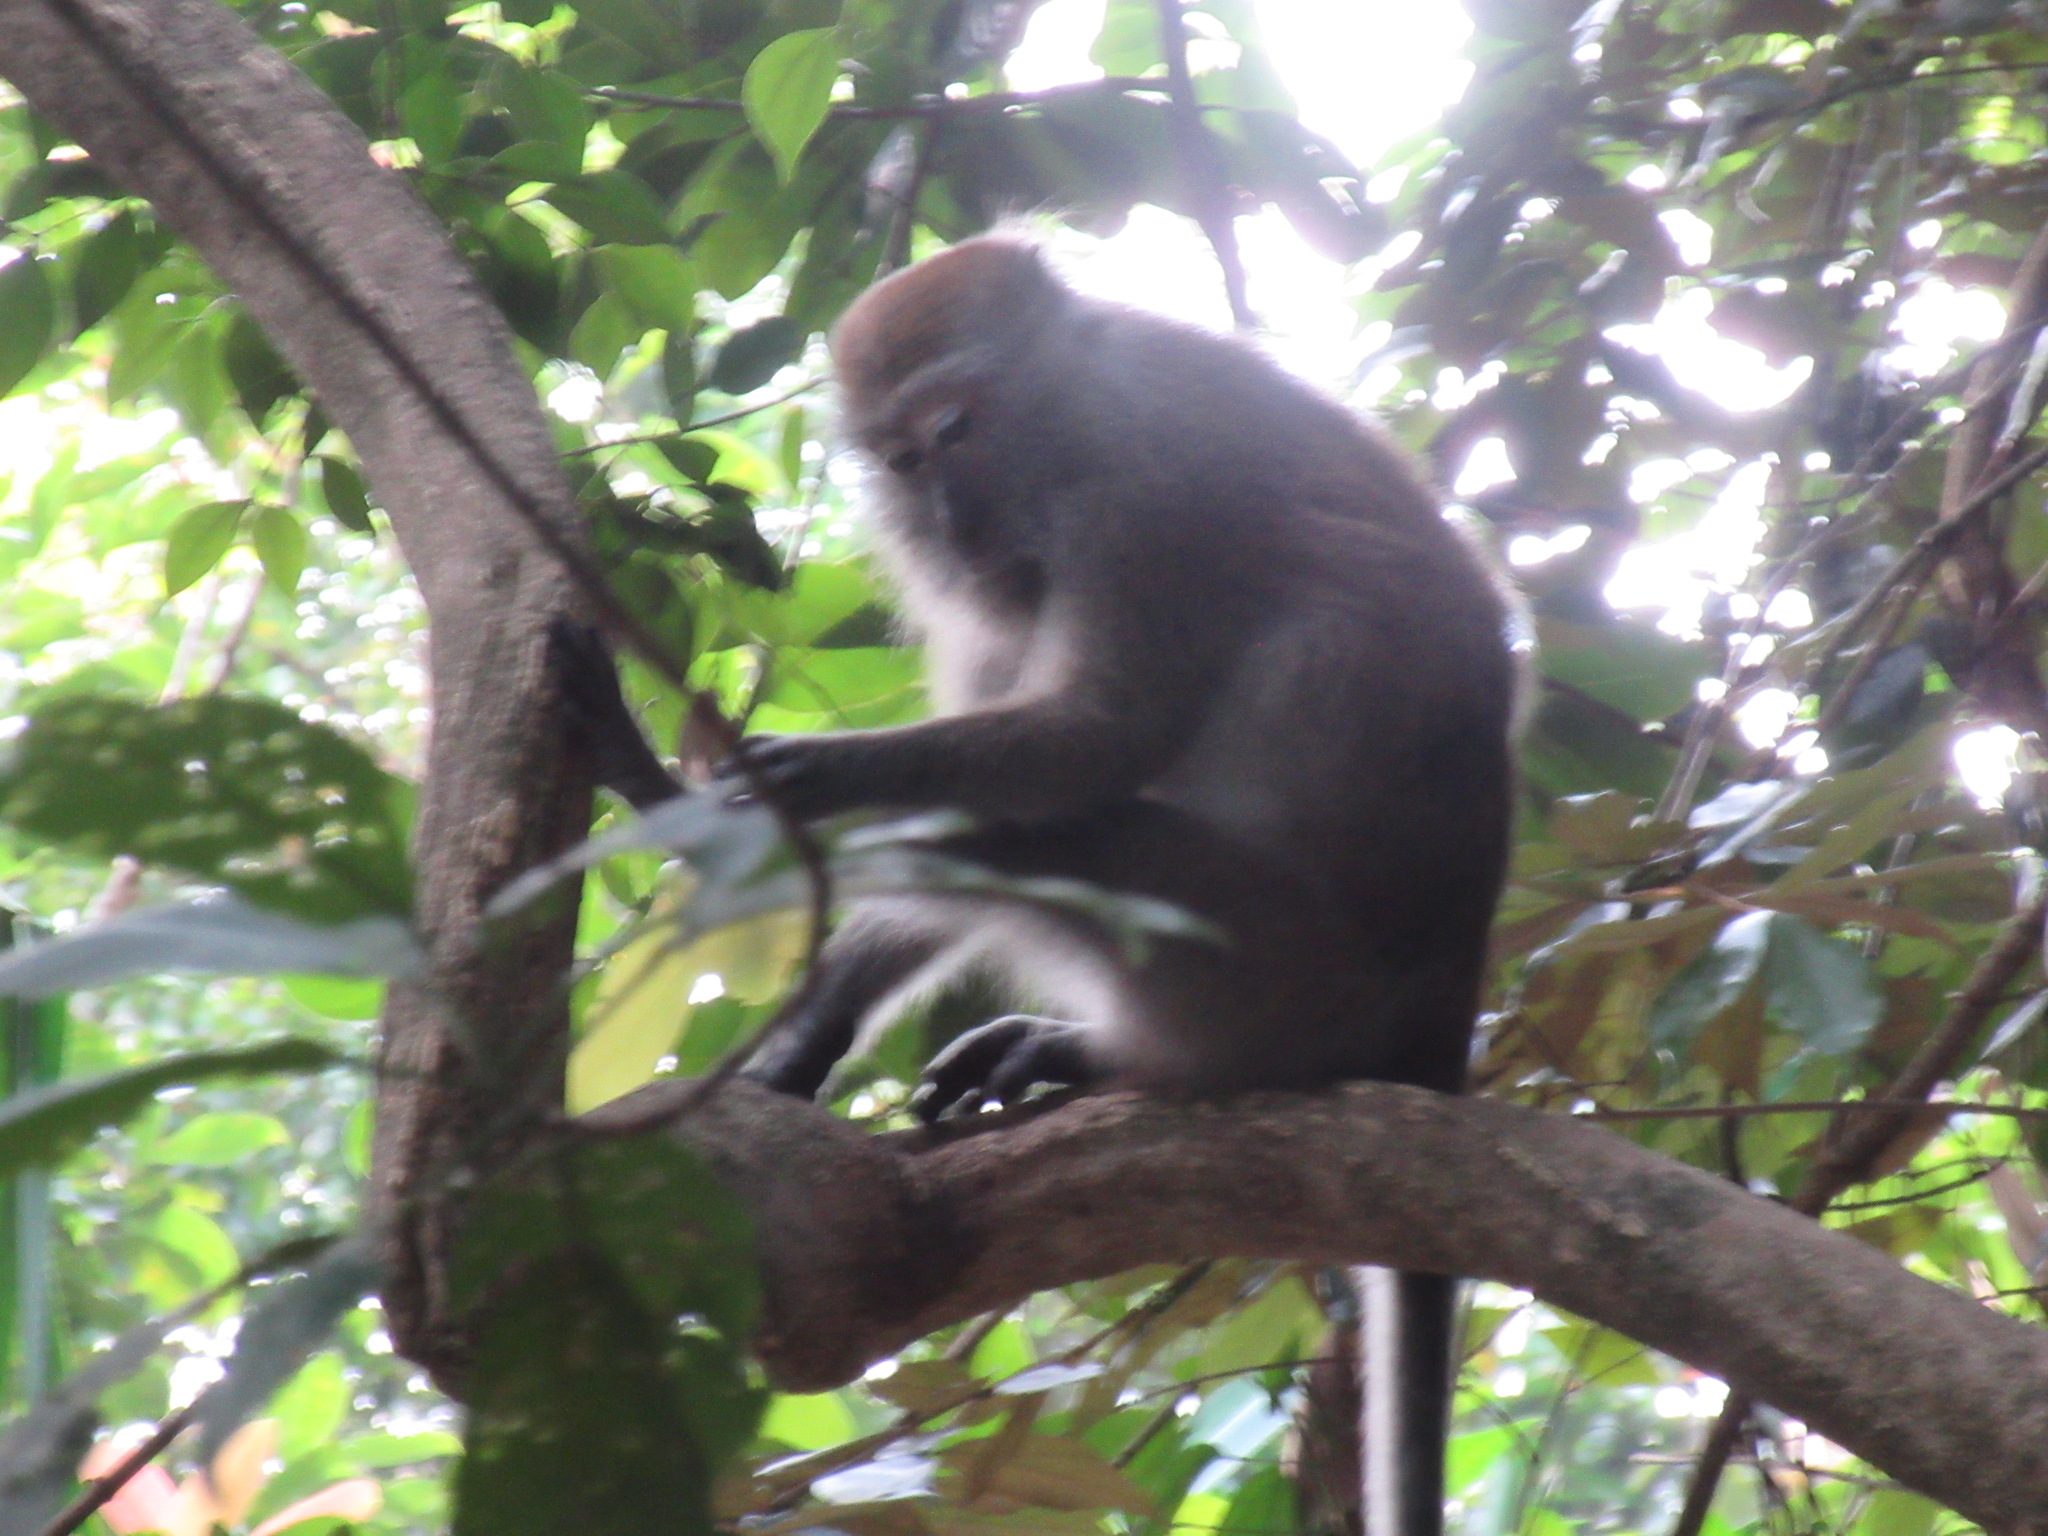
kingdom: Animalia
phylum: Chordata
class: Mammalia
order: Primates
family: Cercopithecidae
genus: Macaca
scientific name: Macaca fascicularis
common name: Crab-eating macaque
